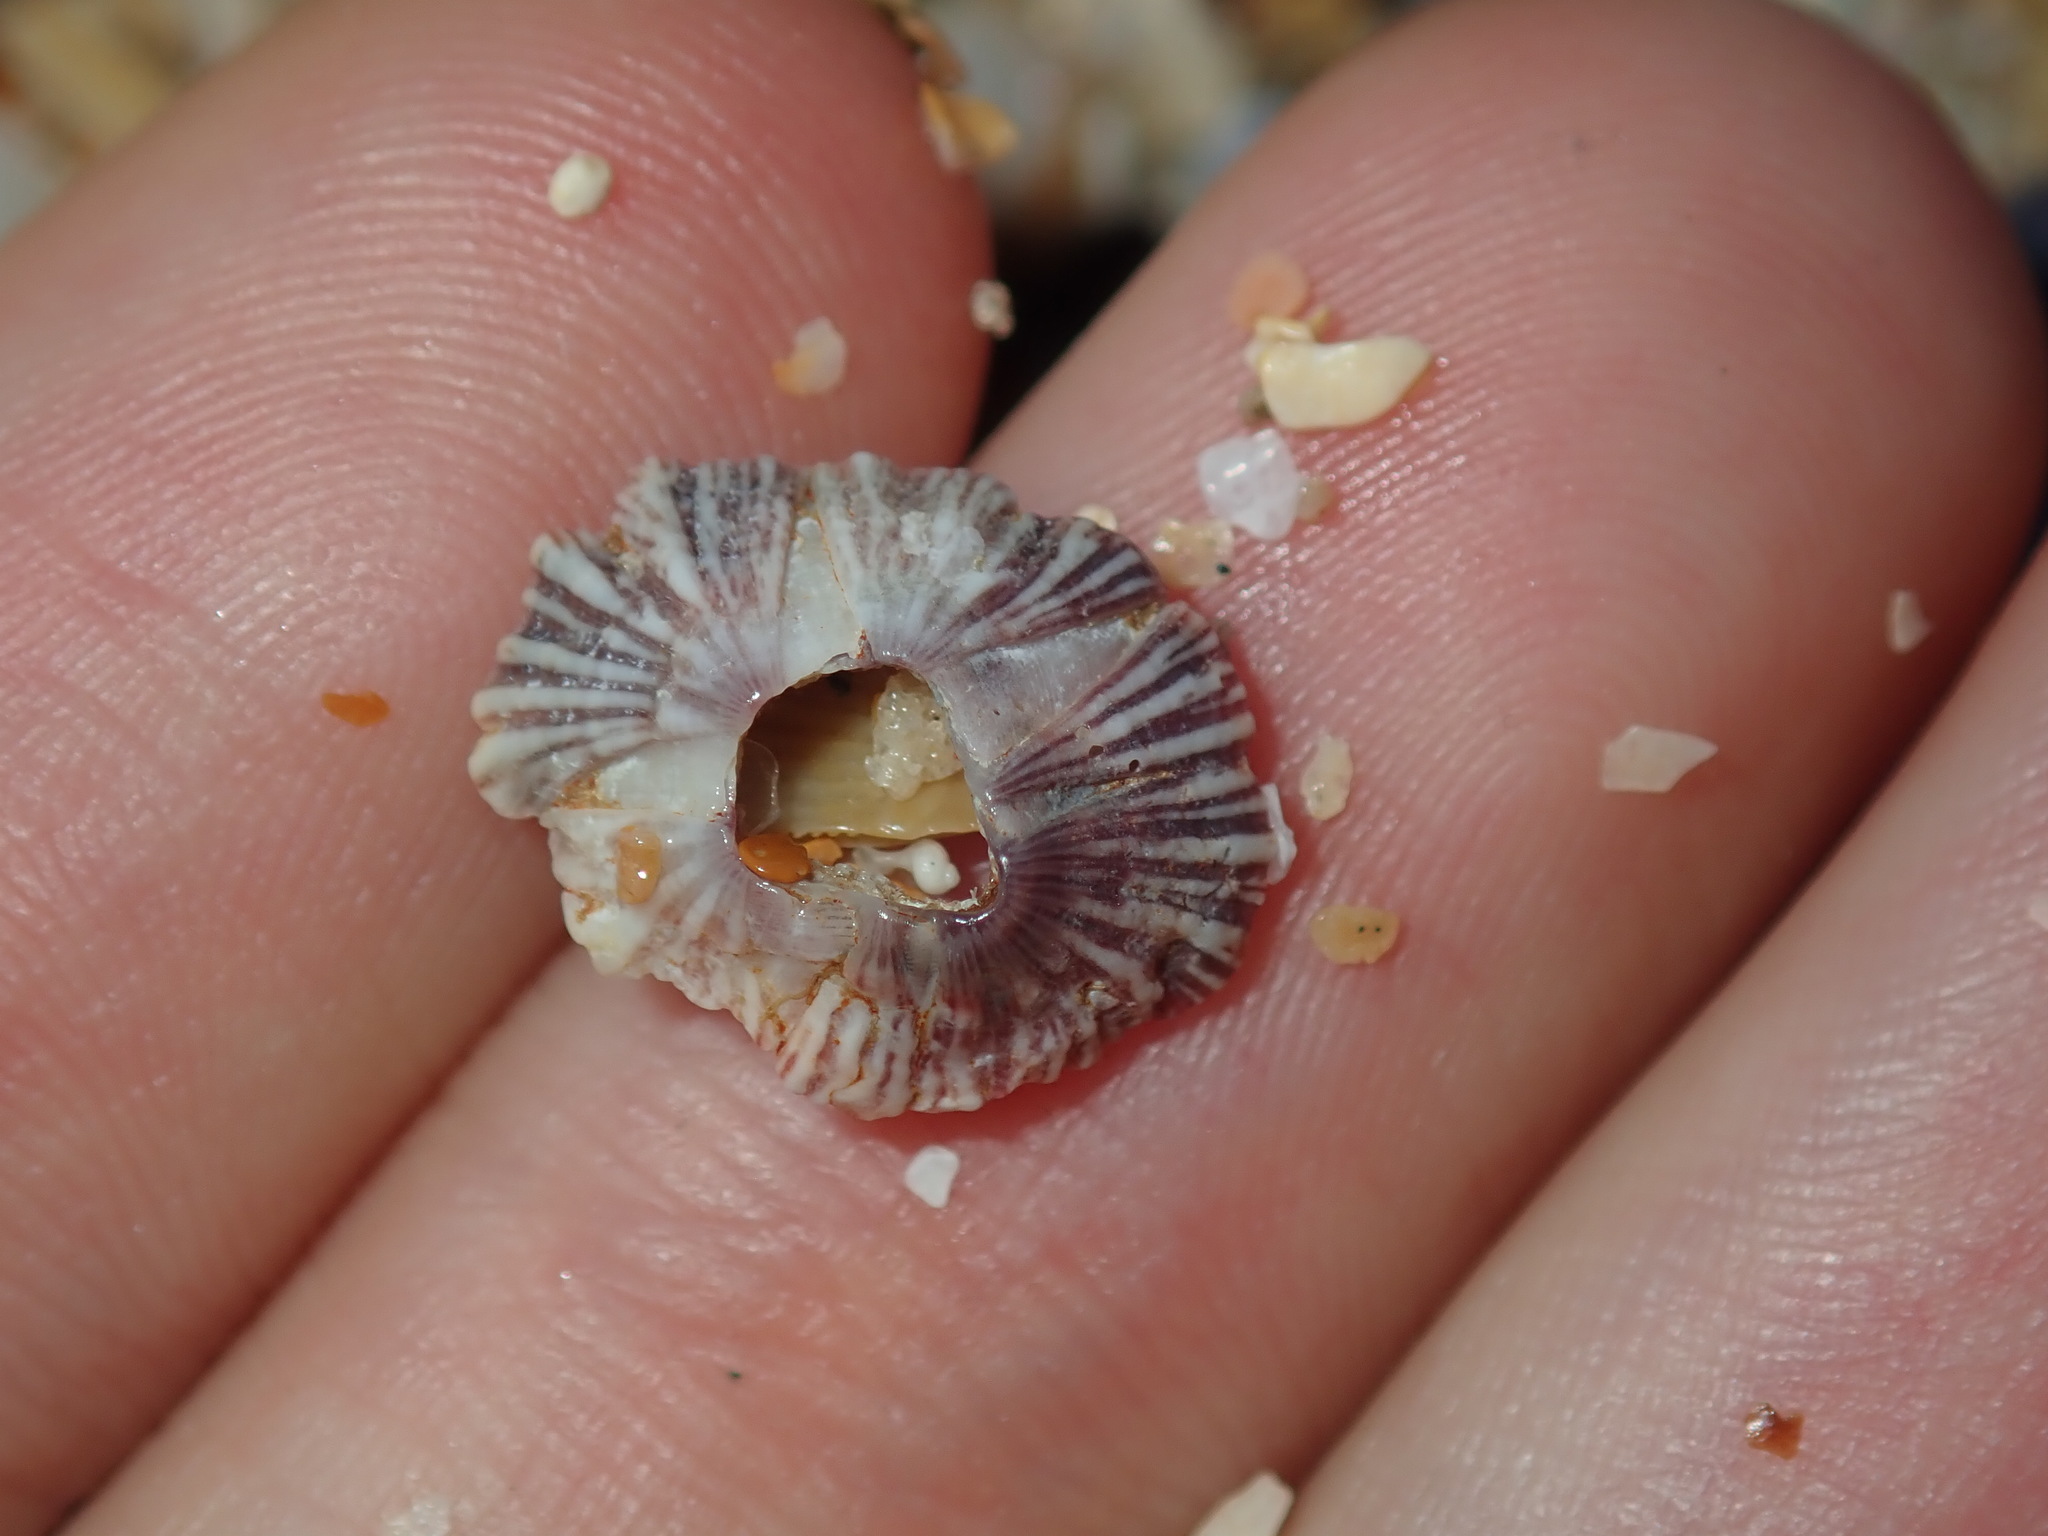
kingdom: Animalia
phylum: Arthropoda
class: Maxillopoda
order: Sessilia
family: Balanidae
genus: Balanus
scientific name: Balanus trigonus
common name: Triangle barnacle
